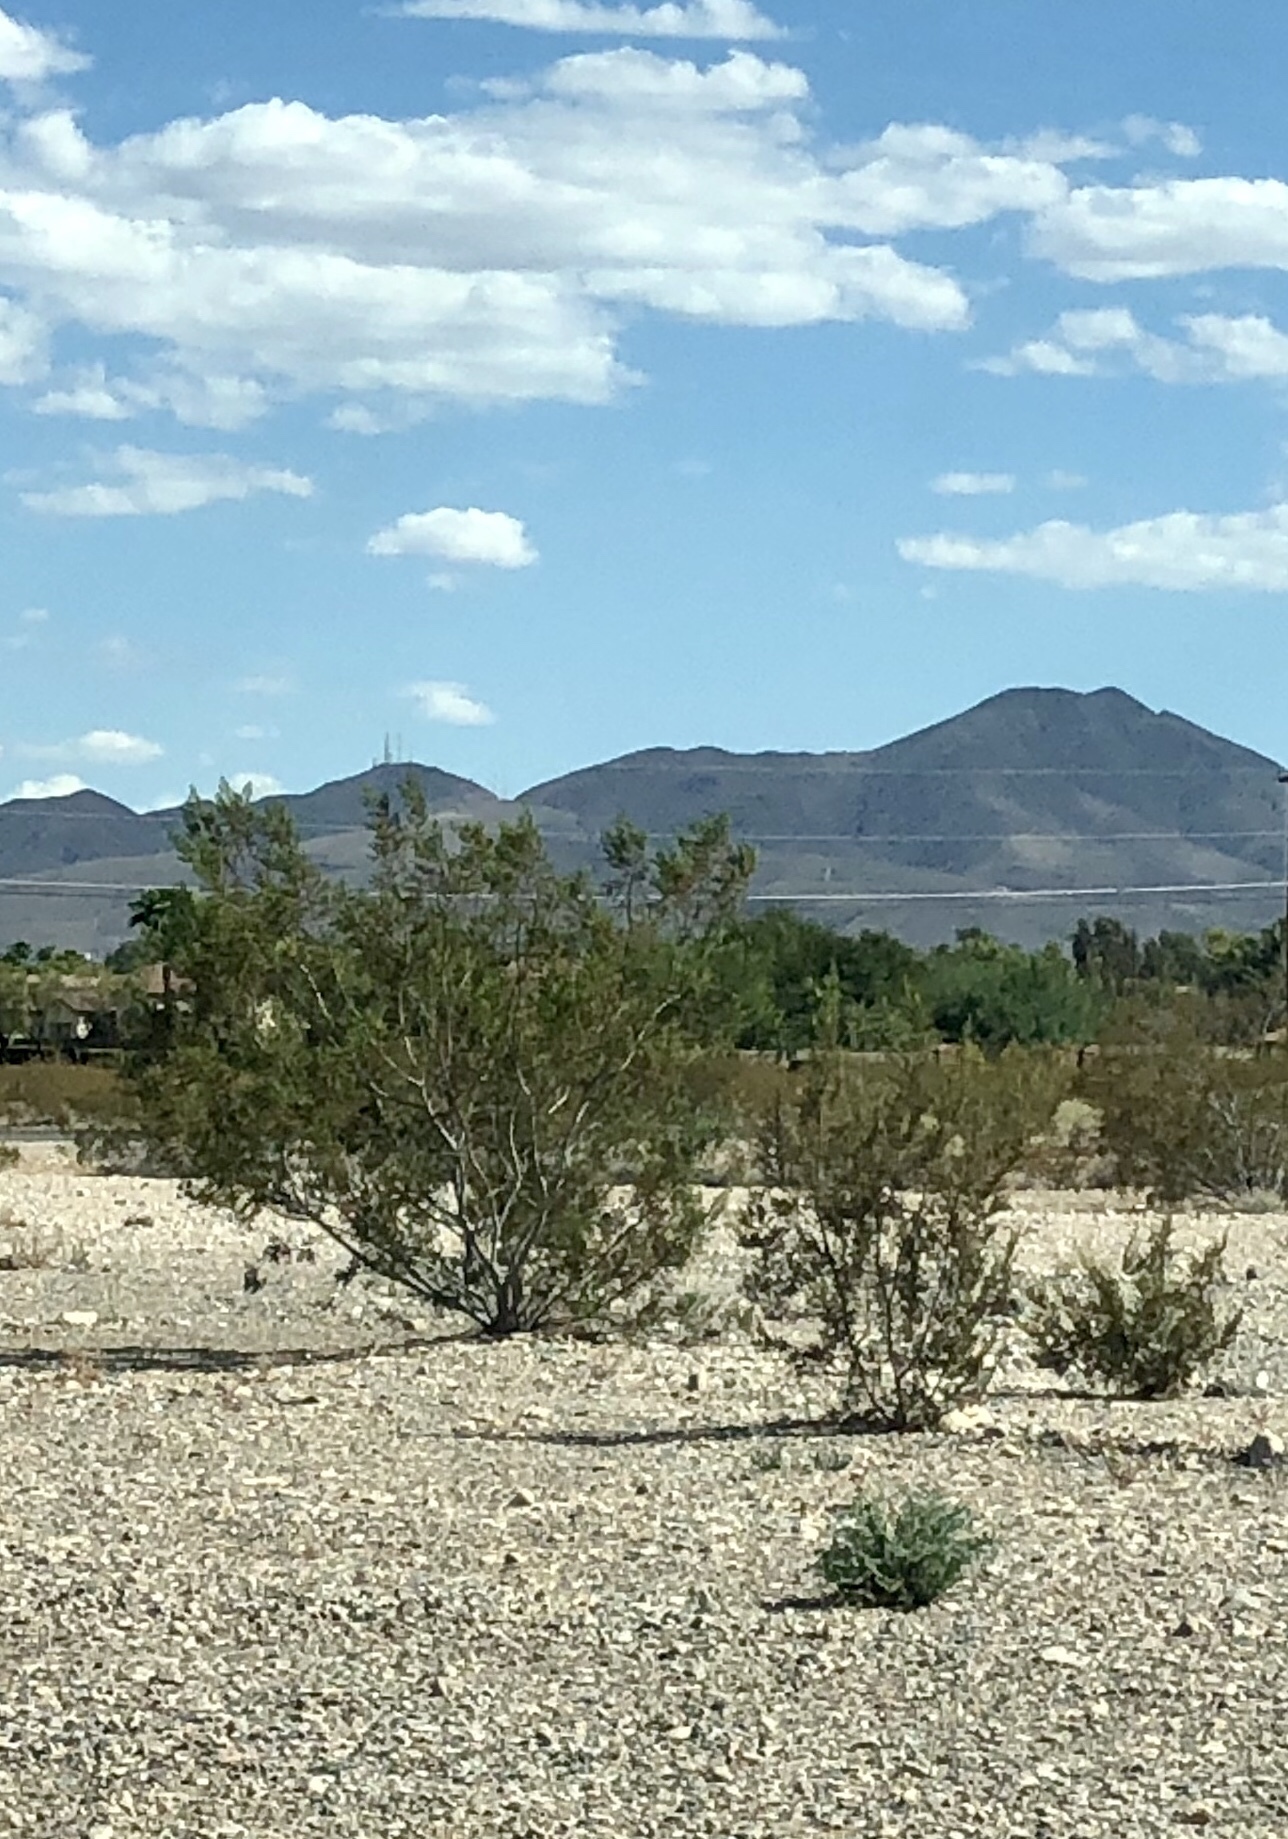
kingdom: Plantae
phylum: Tracheophyta
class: Magnoliopsida
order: Zygophyllales
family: Zygophyllaceae
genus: Larrea
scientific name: Larrea tridentata
